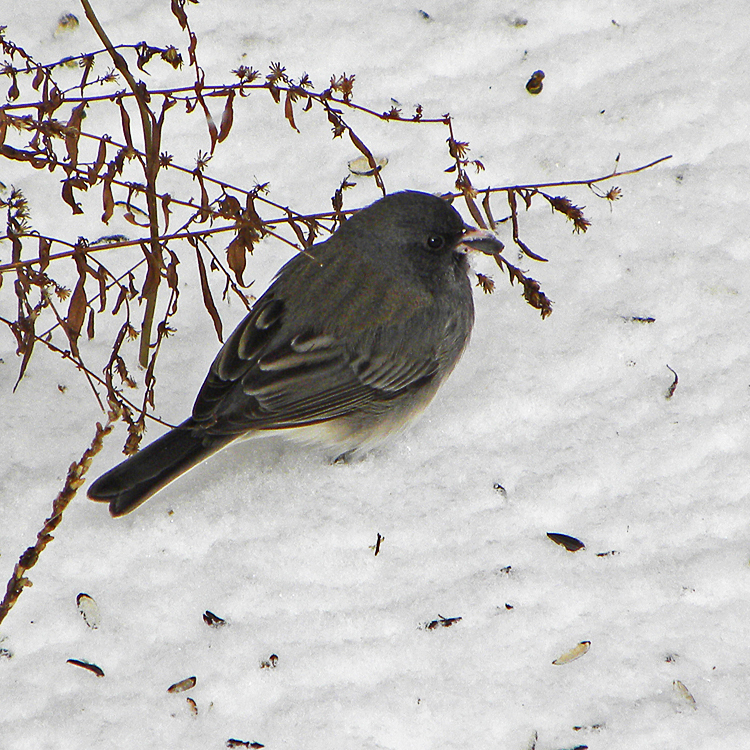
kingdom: Animalia
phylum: Chordata
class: Aves
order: Passeriformes
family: Passerellidae
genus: Junco
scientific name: Junco hyemalis
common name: Dark-eyed junco
